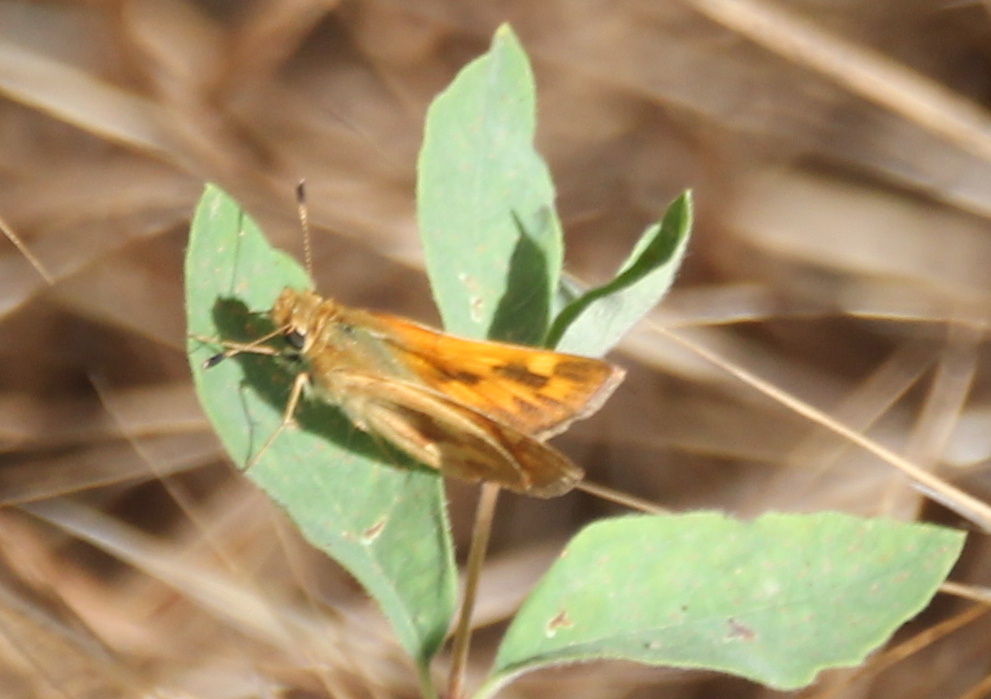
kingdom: Animalia
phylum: Arthropoda
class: Insecta
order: Lepidoptera
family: Hesperiidae
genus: Hylephila
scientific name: Hylephila phyleus
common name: Fiery skipper
